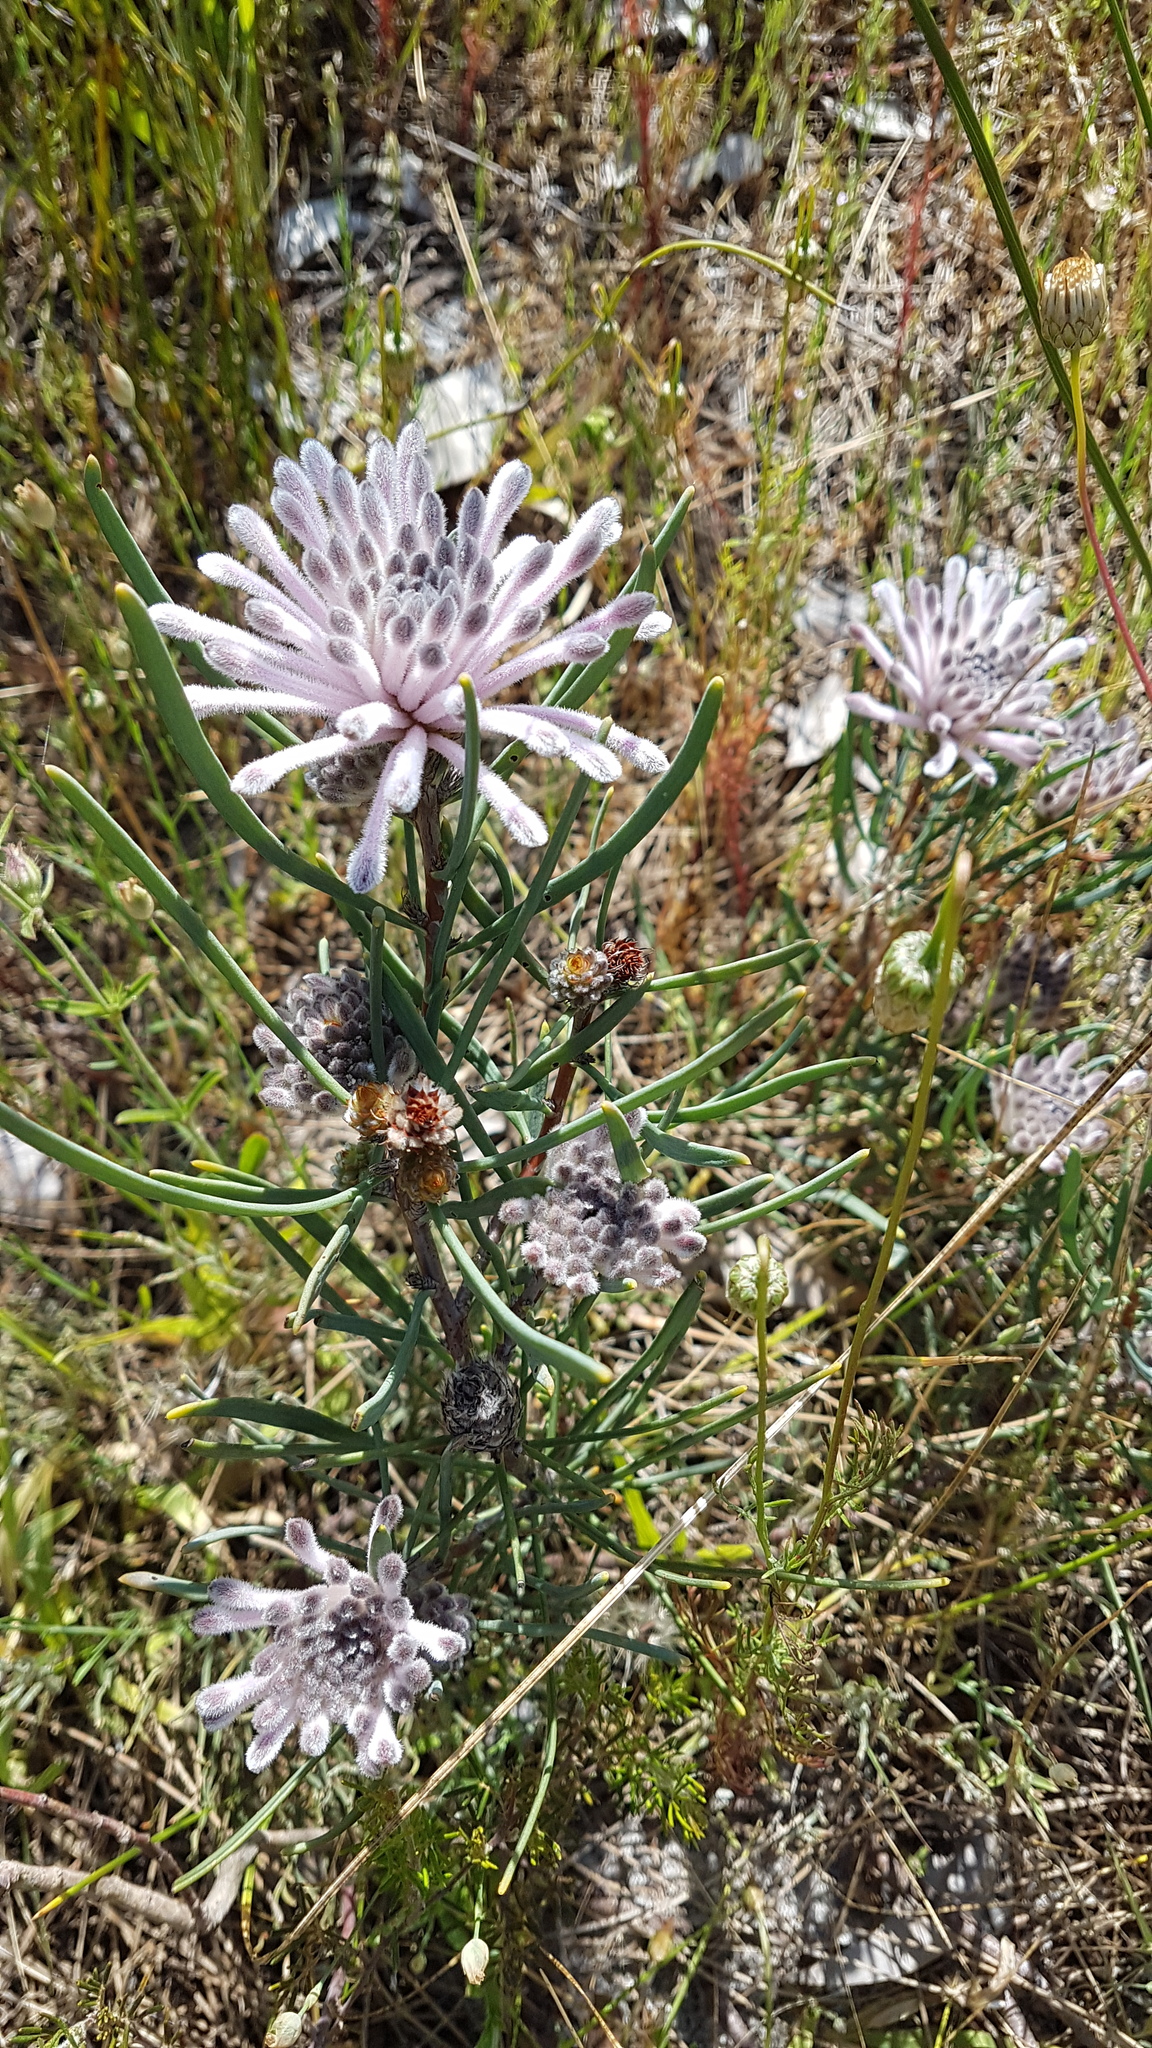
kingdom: Plantae
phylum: Tracheophyta
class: Magnoliopsida
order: Proteales
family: Proteaceae
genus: Petrophile
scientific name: Petrophile linearis
